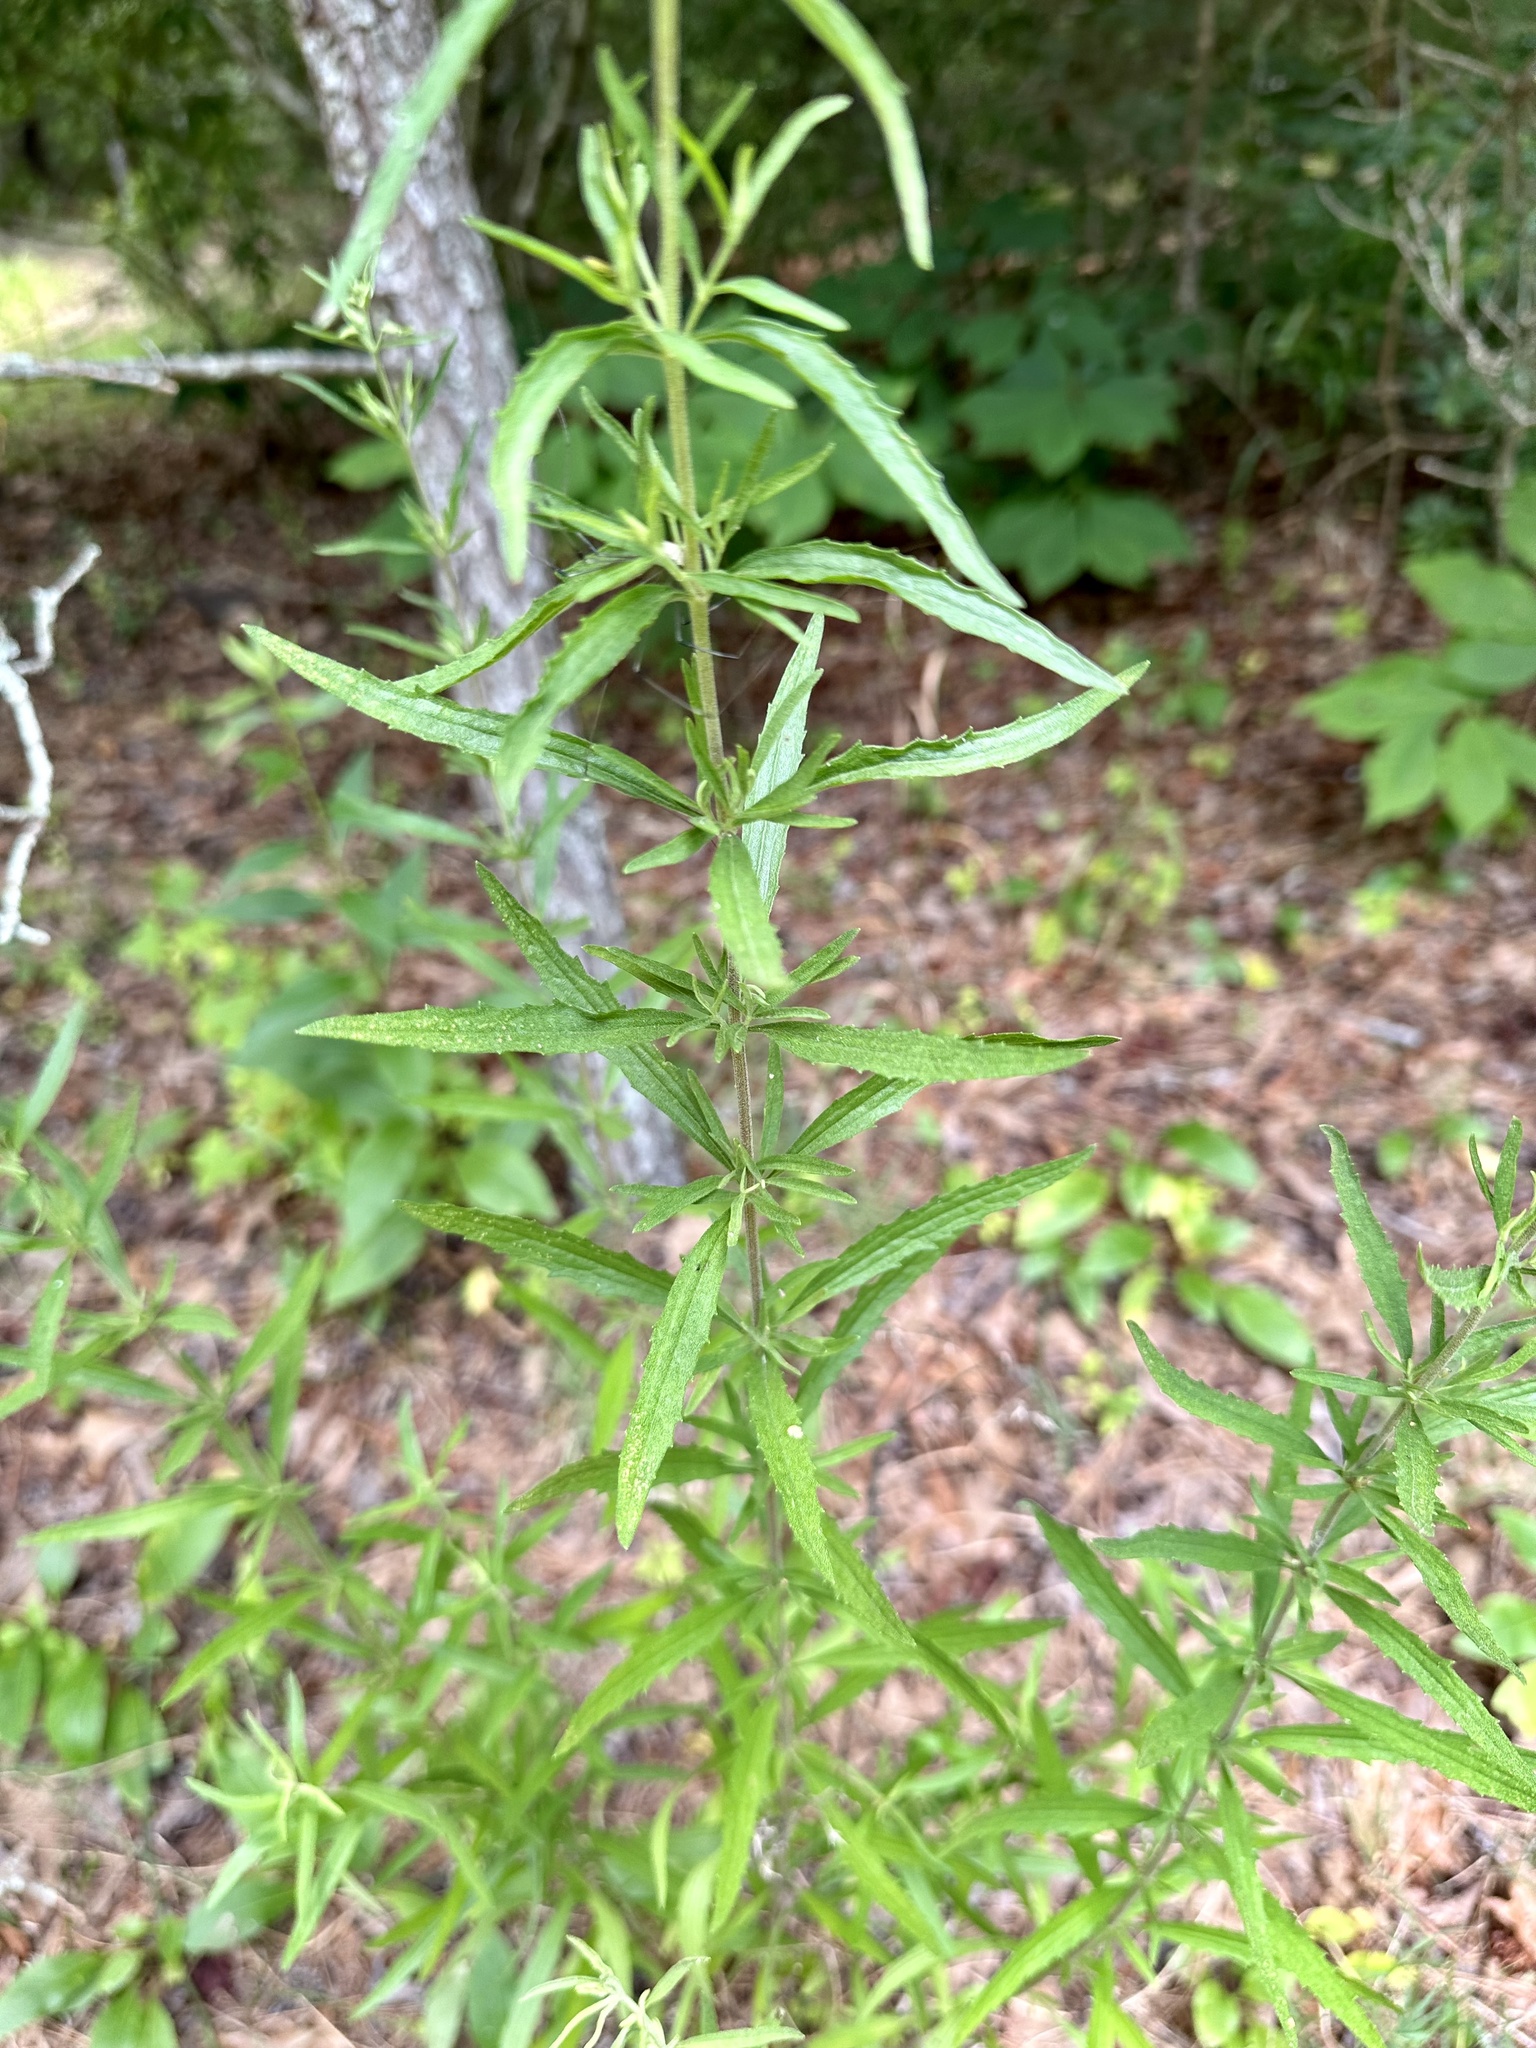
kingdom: Plantae
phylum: Tracheophyta
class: Magnoliopsida
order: Asterales
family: Asteraceae
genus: Eupatorium
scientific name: Eupatorium torreyanum
